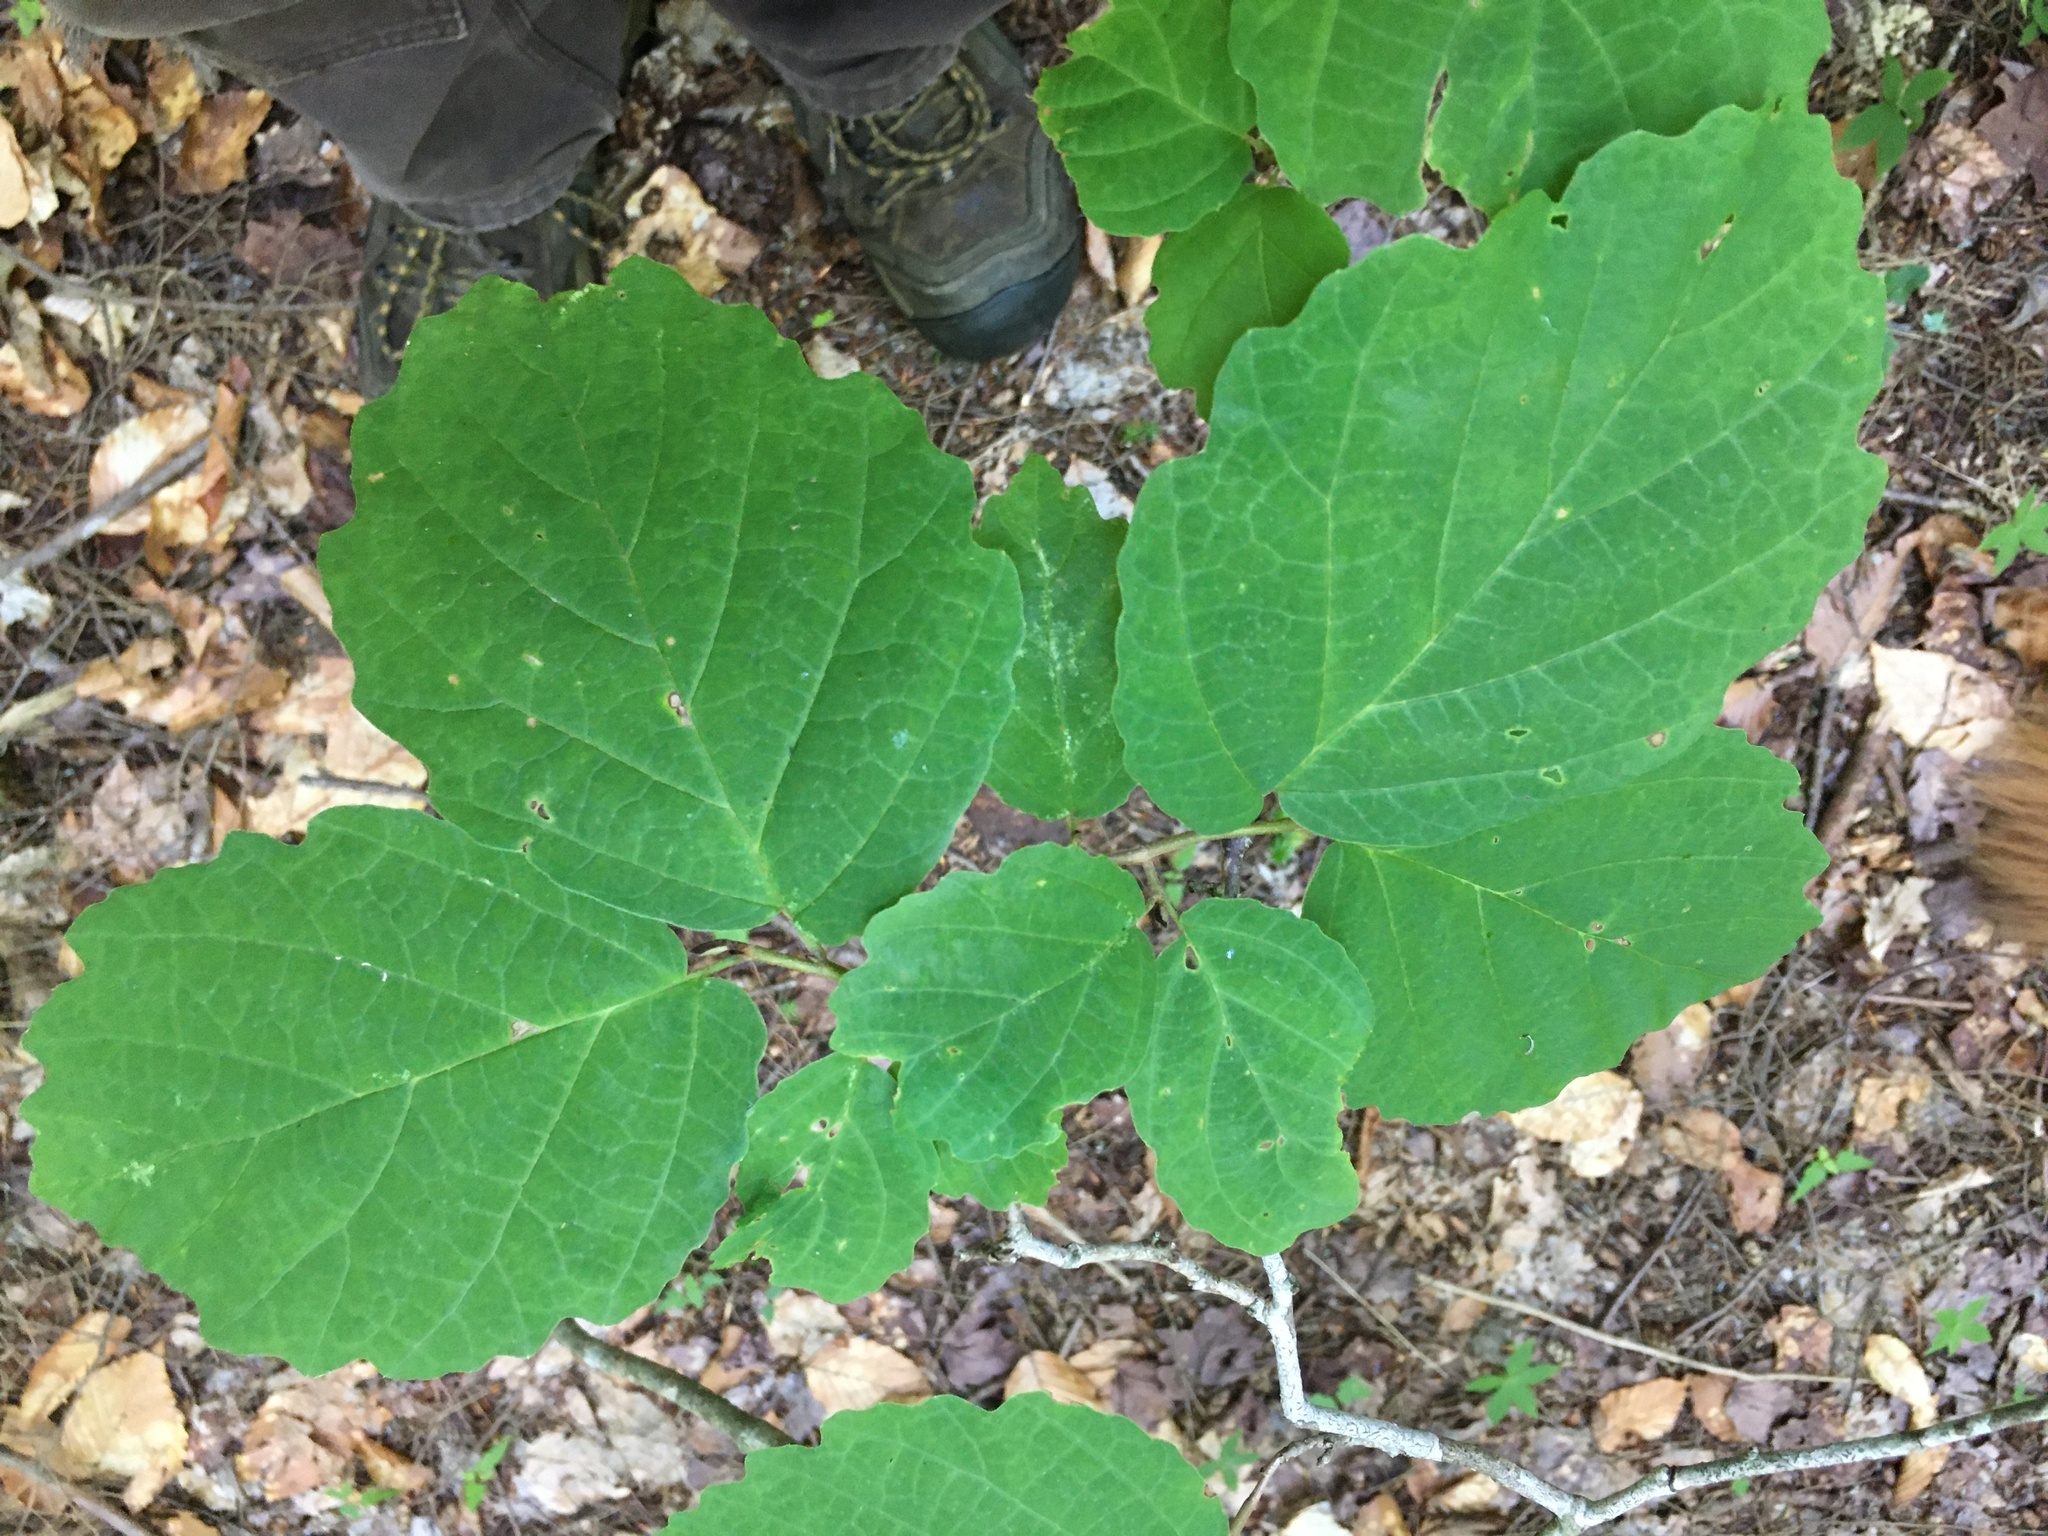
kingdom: Plantae
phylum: Tracheophyta
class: Magnoliopsida
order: Saxifragales
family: Hamamelidaceae
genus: Hamamelis
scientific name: Hamamelis virginiana
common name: Witch-hazel
